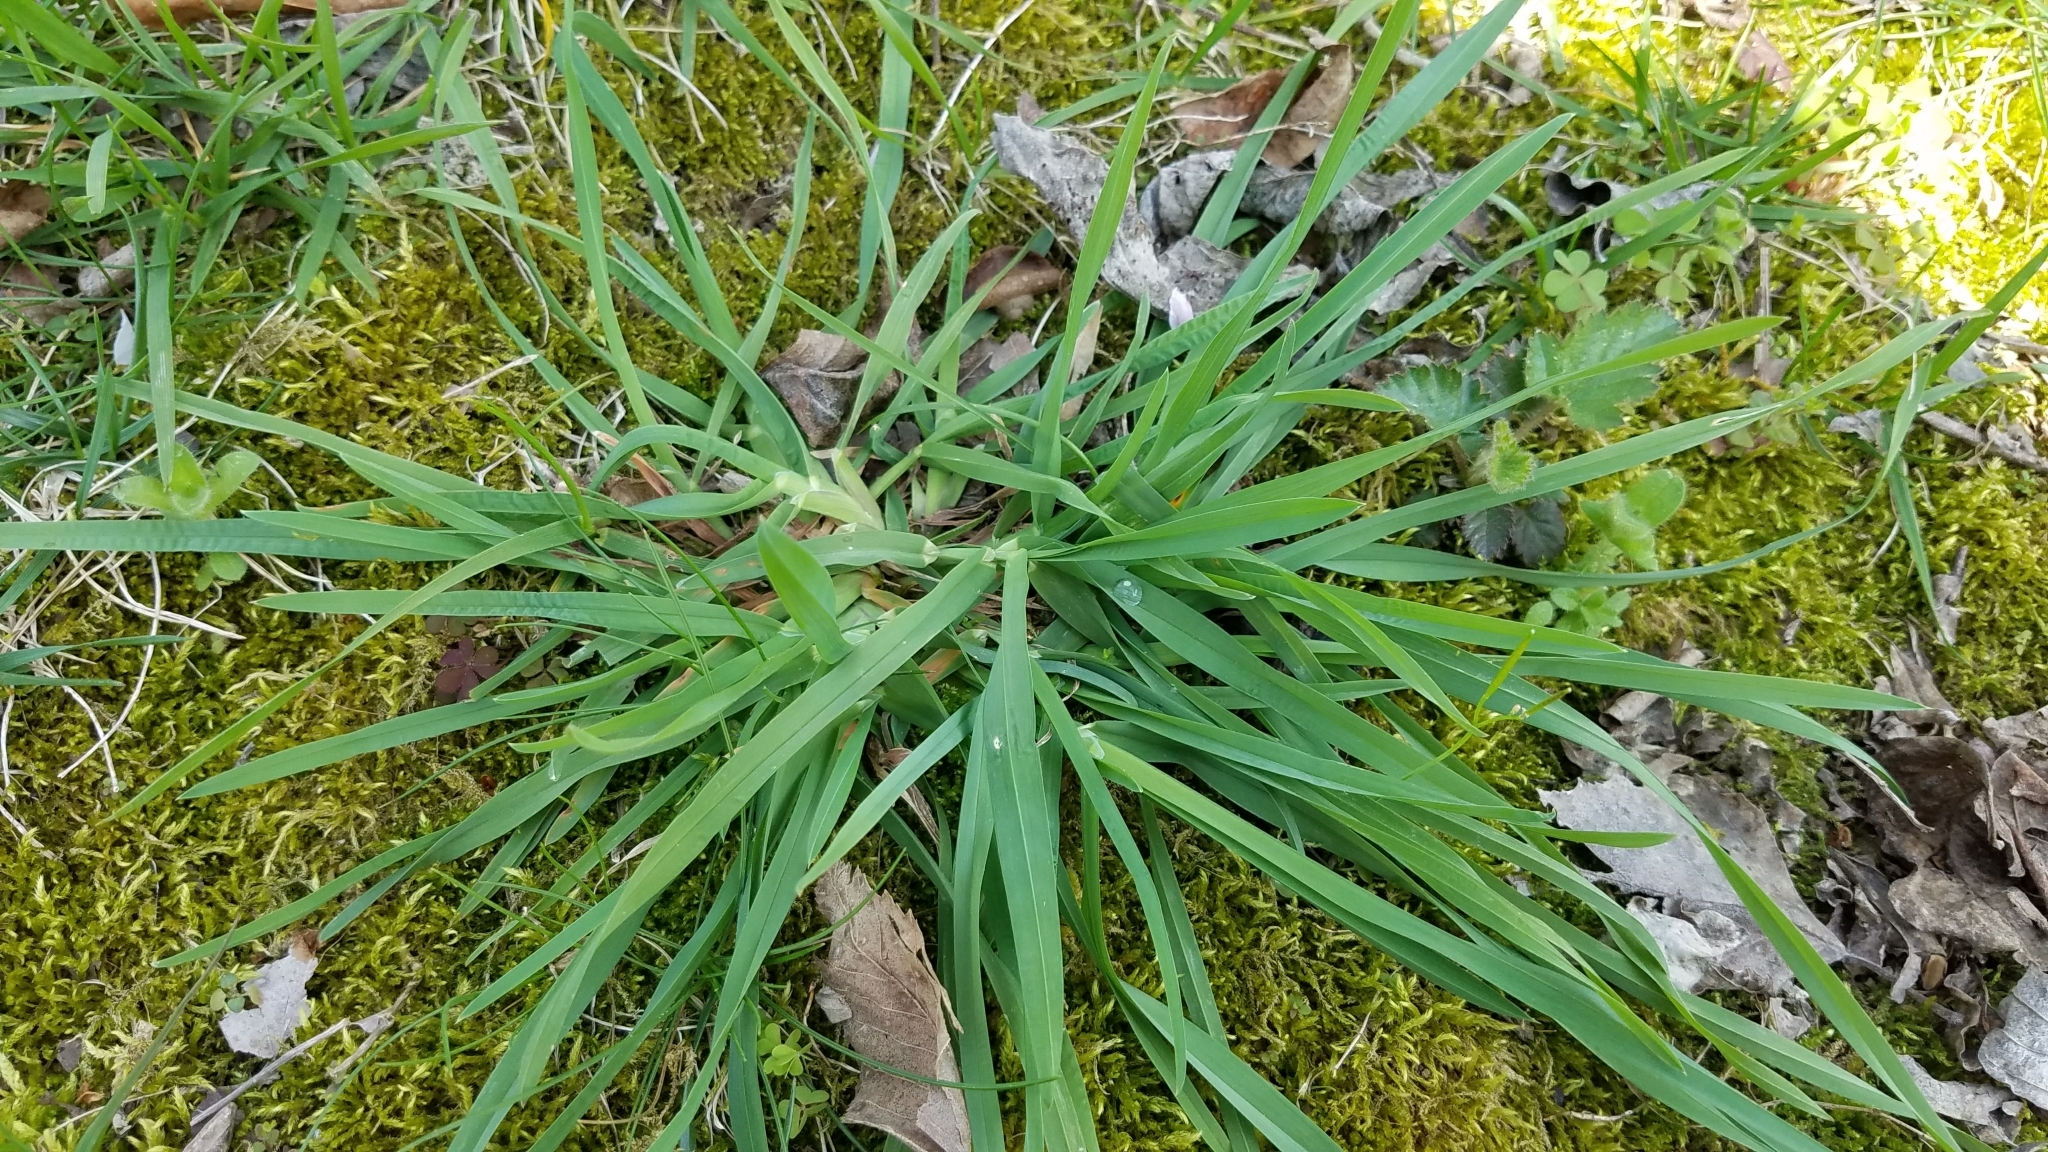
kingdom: Plantae
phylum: Tracheophyta
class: Liliopsida
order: Poales
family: Poaceae
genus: Dactylis
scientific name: Dactylis glomerata
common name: Orchardgrass
